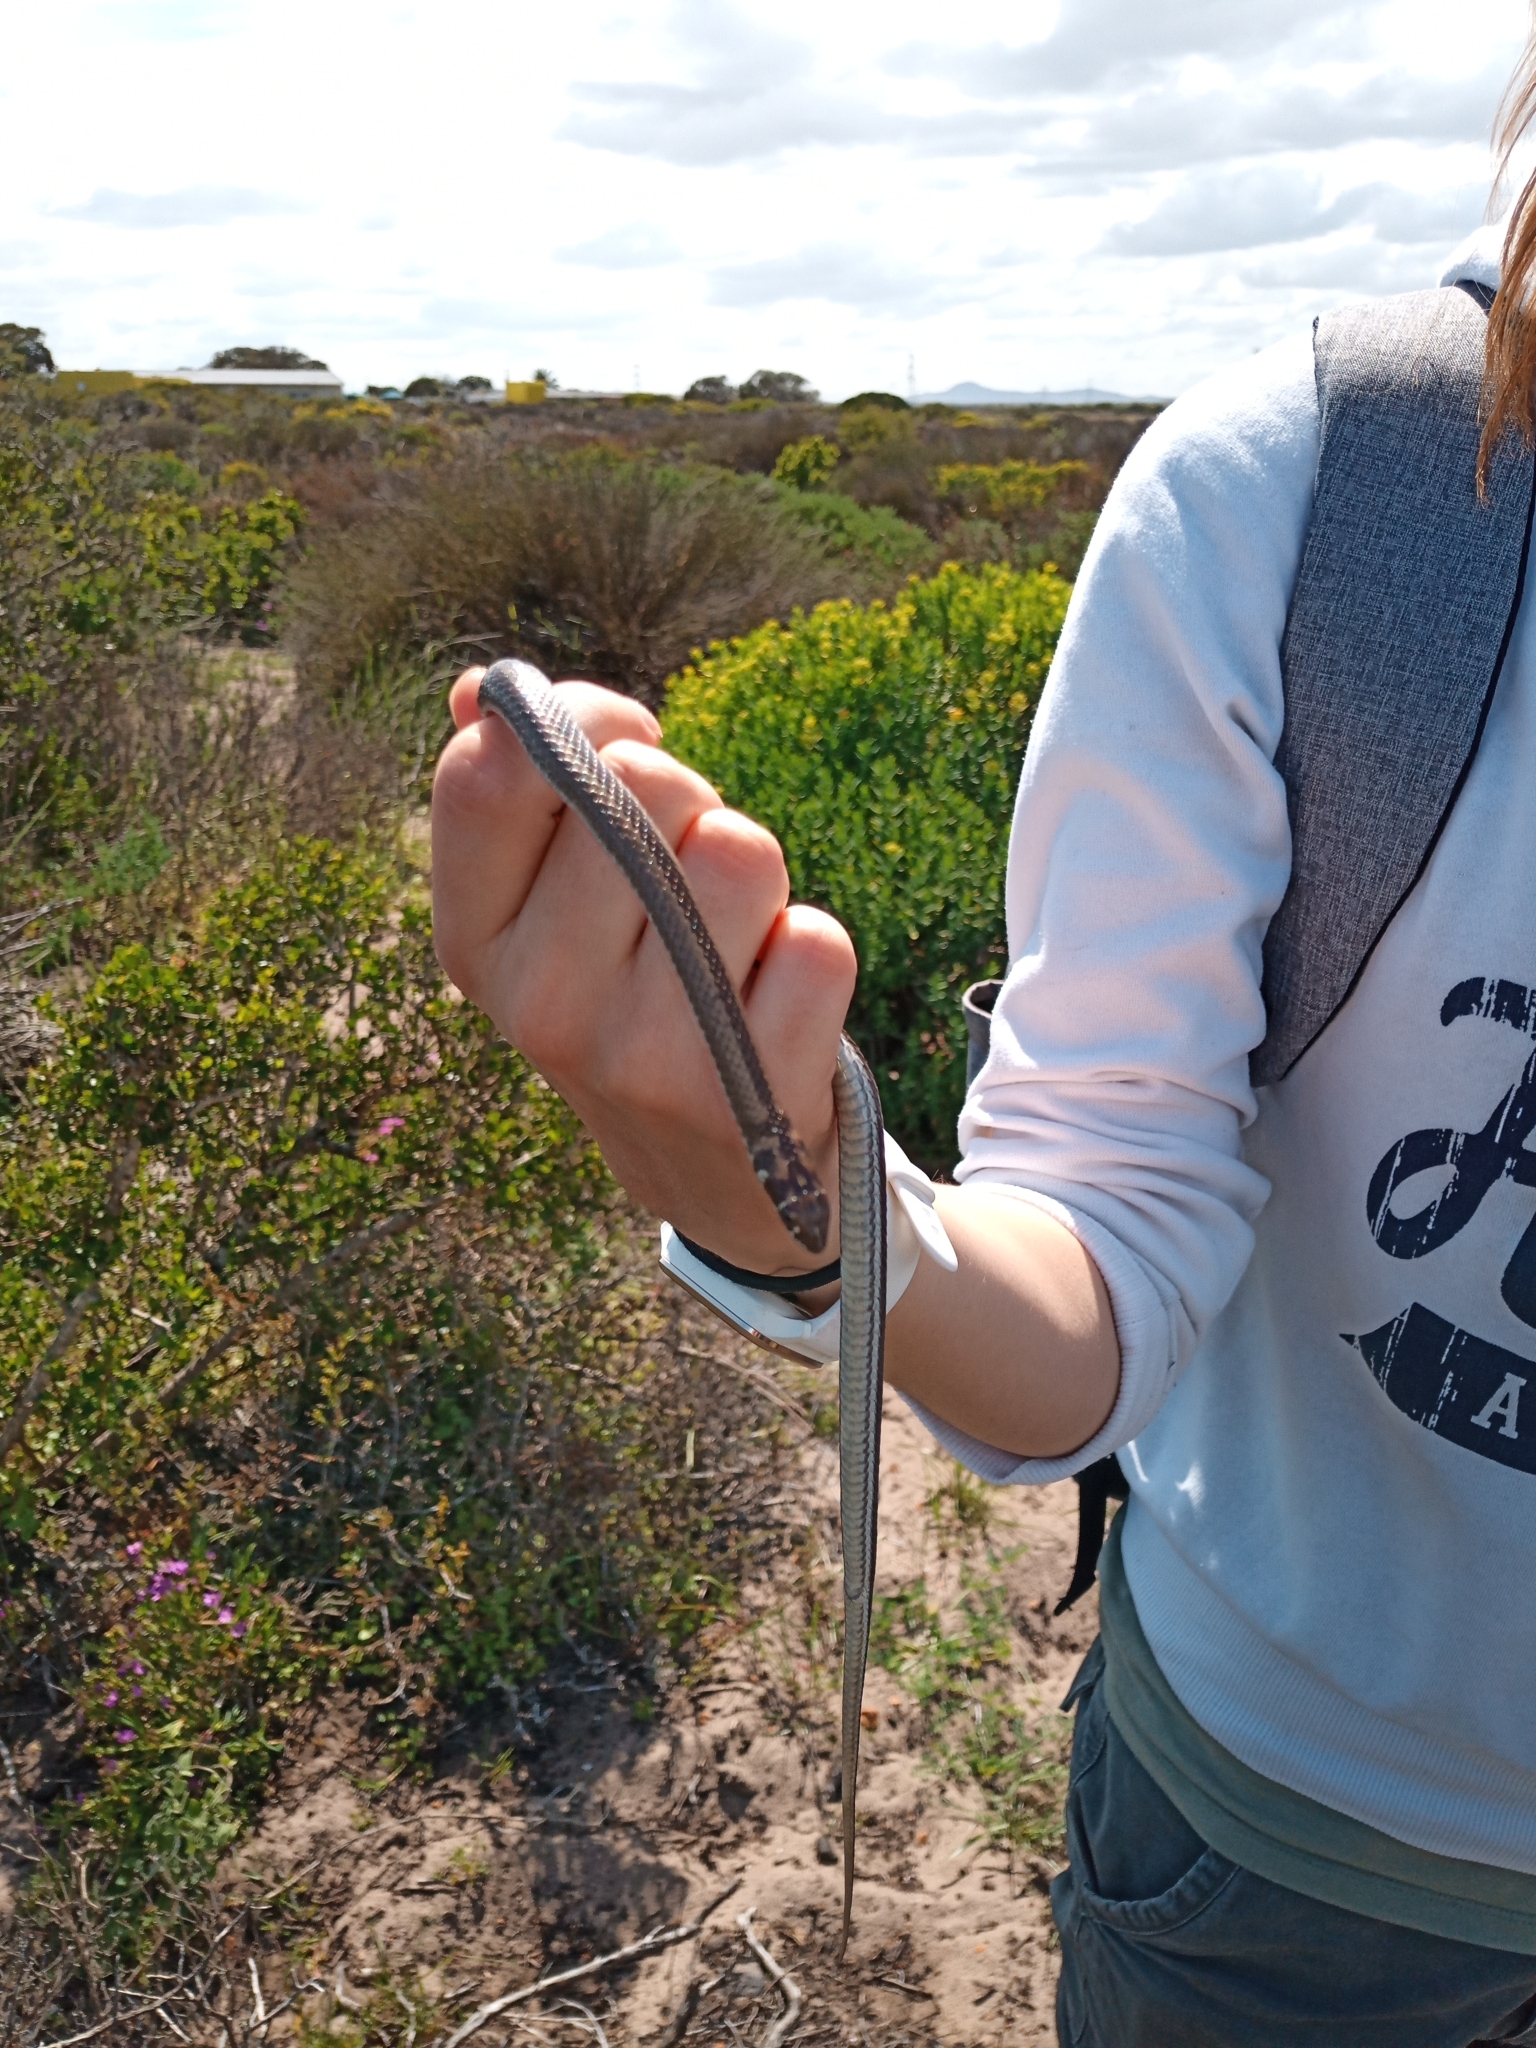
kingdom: Animalia
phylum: Chordata
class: Squamata
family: Psammophiidae
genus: Psammophis
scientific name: Psammophis crucifer
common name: Cross-marked grass snake
